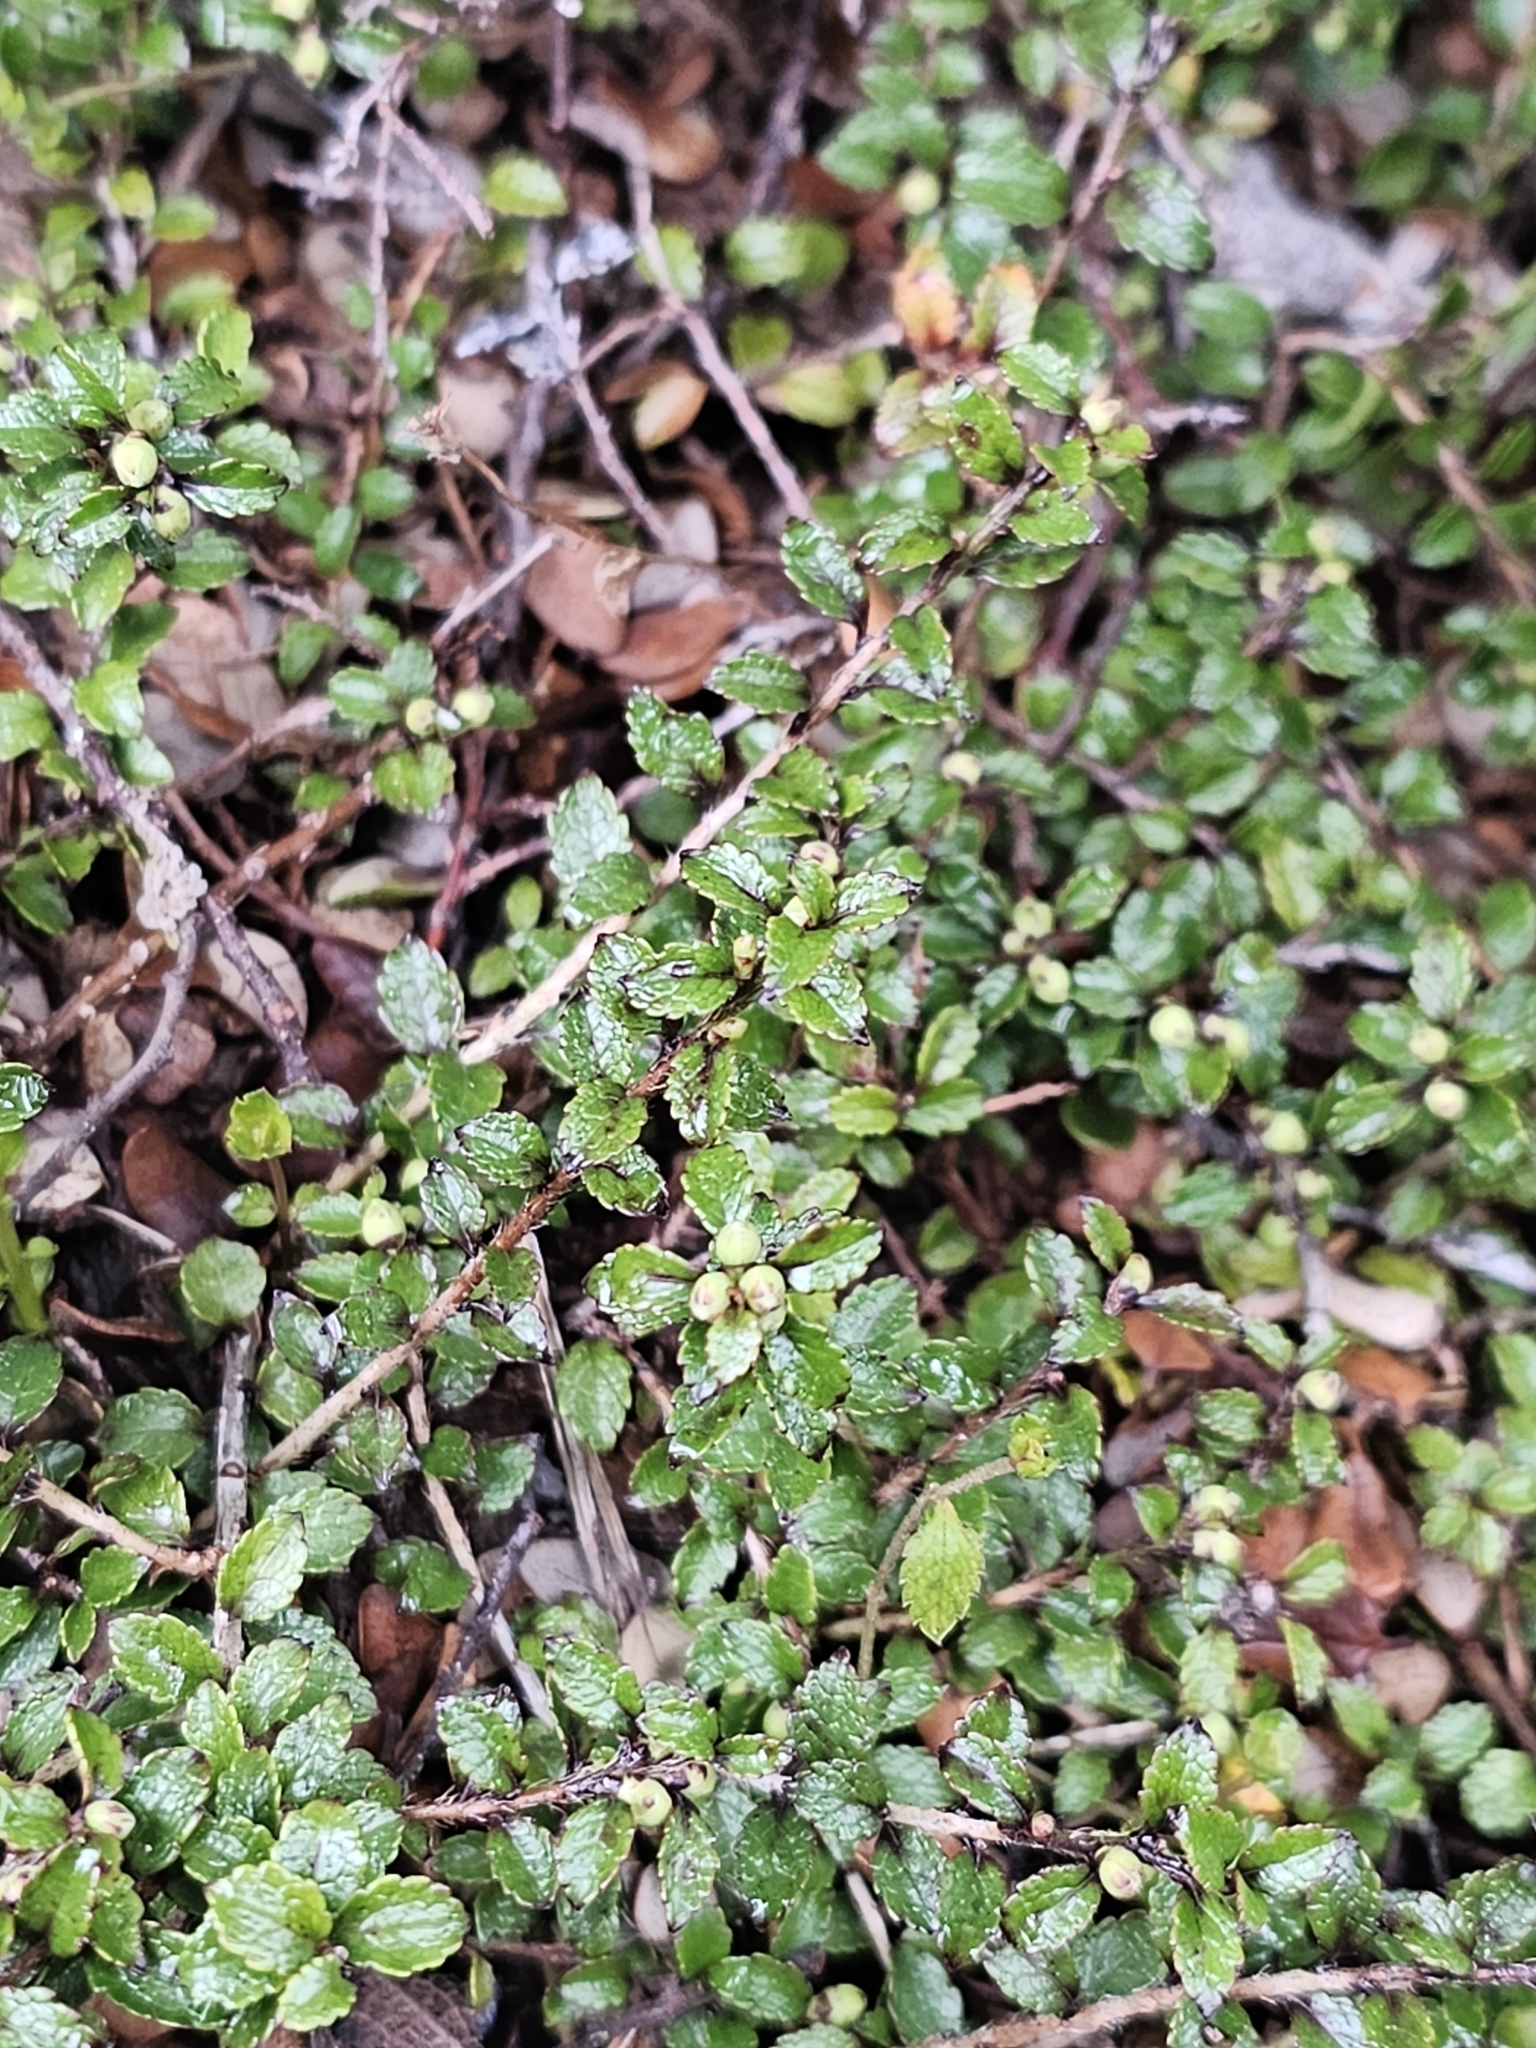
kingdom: Plantae
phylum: Tracheophyta
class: Magnoliopsida
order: Ericales
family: Ericaceae
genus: Gaultheria
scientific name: Gaultheria antipoda
